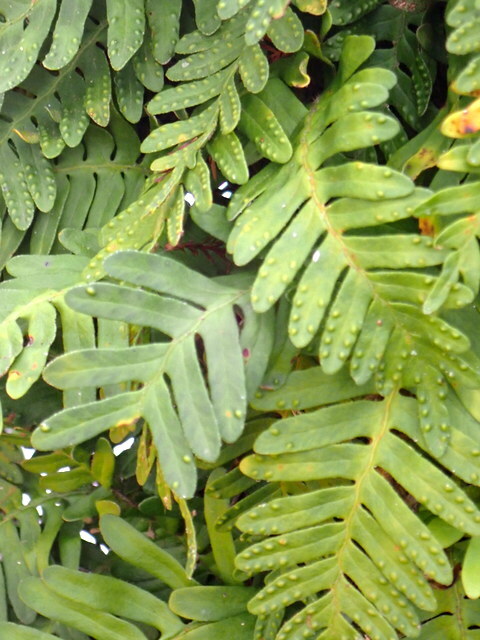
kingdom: Plantae
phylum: Tracheophyta
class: Polypodiopsida
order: Polypodiales
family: Polypodiaceae
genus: Pleopeltis
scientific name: Pleopeltis michauxiana
